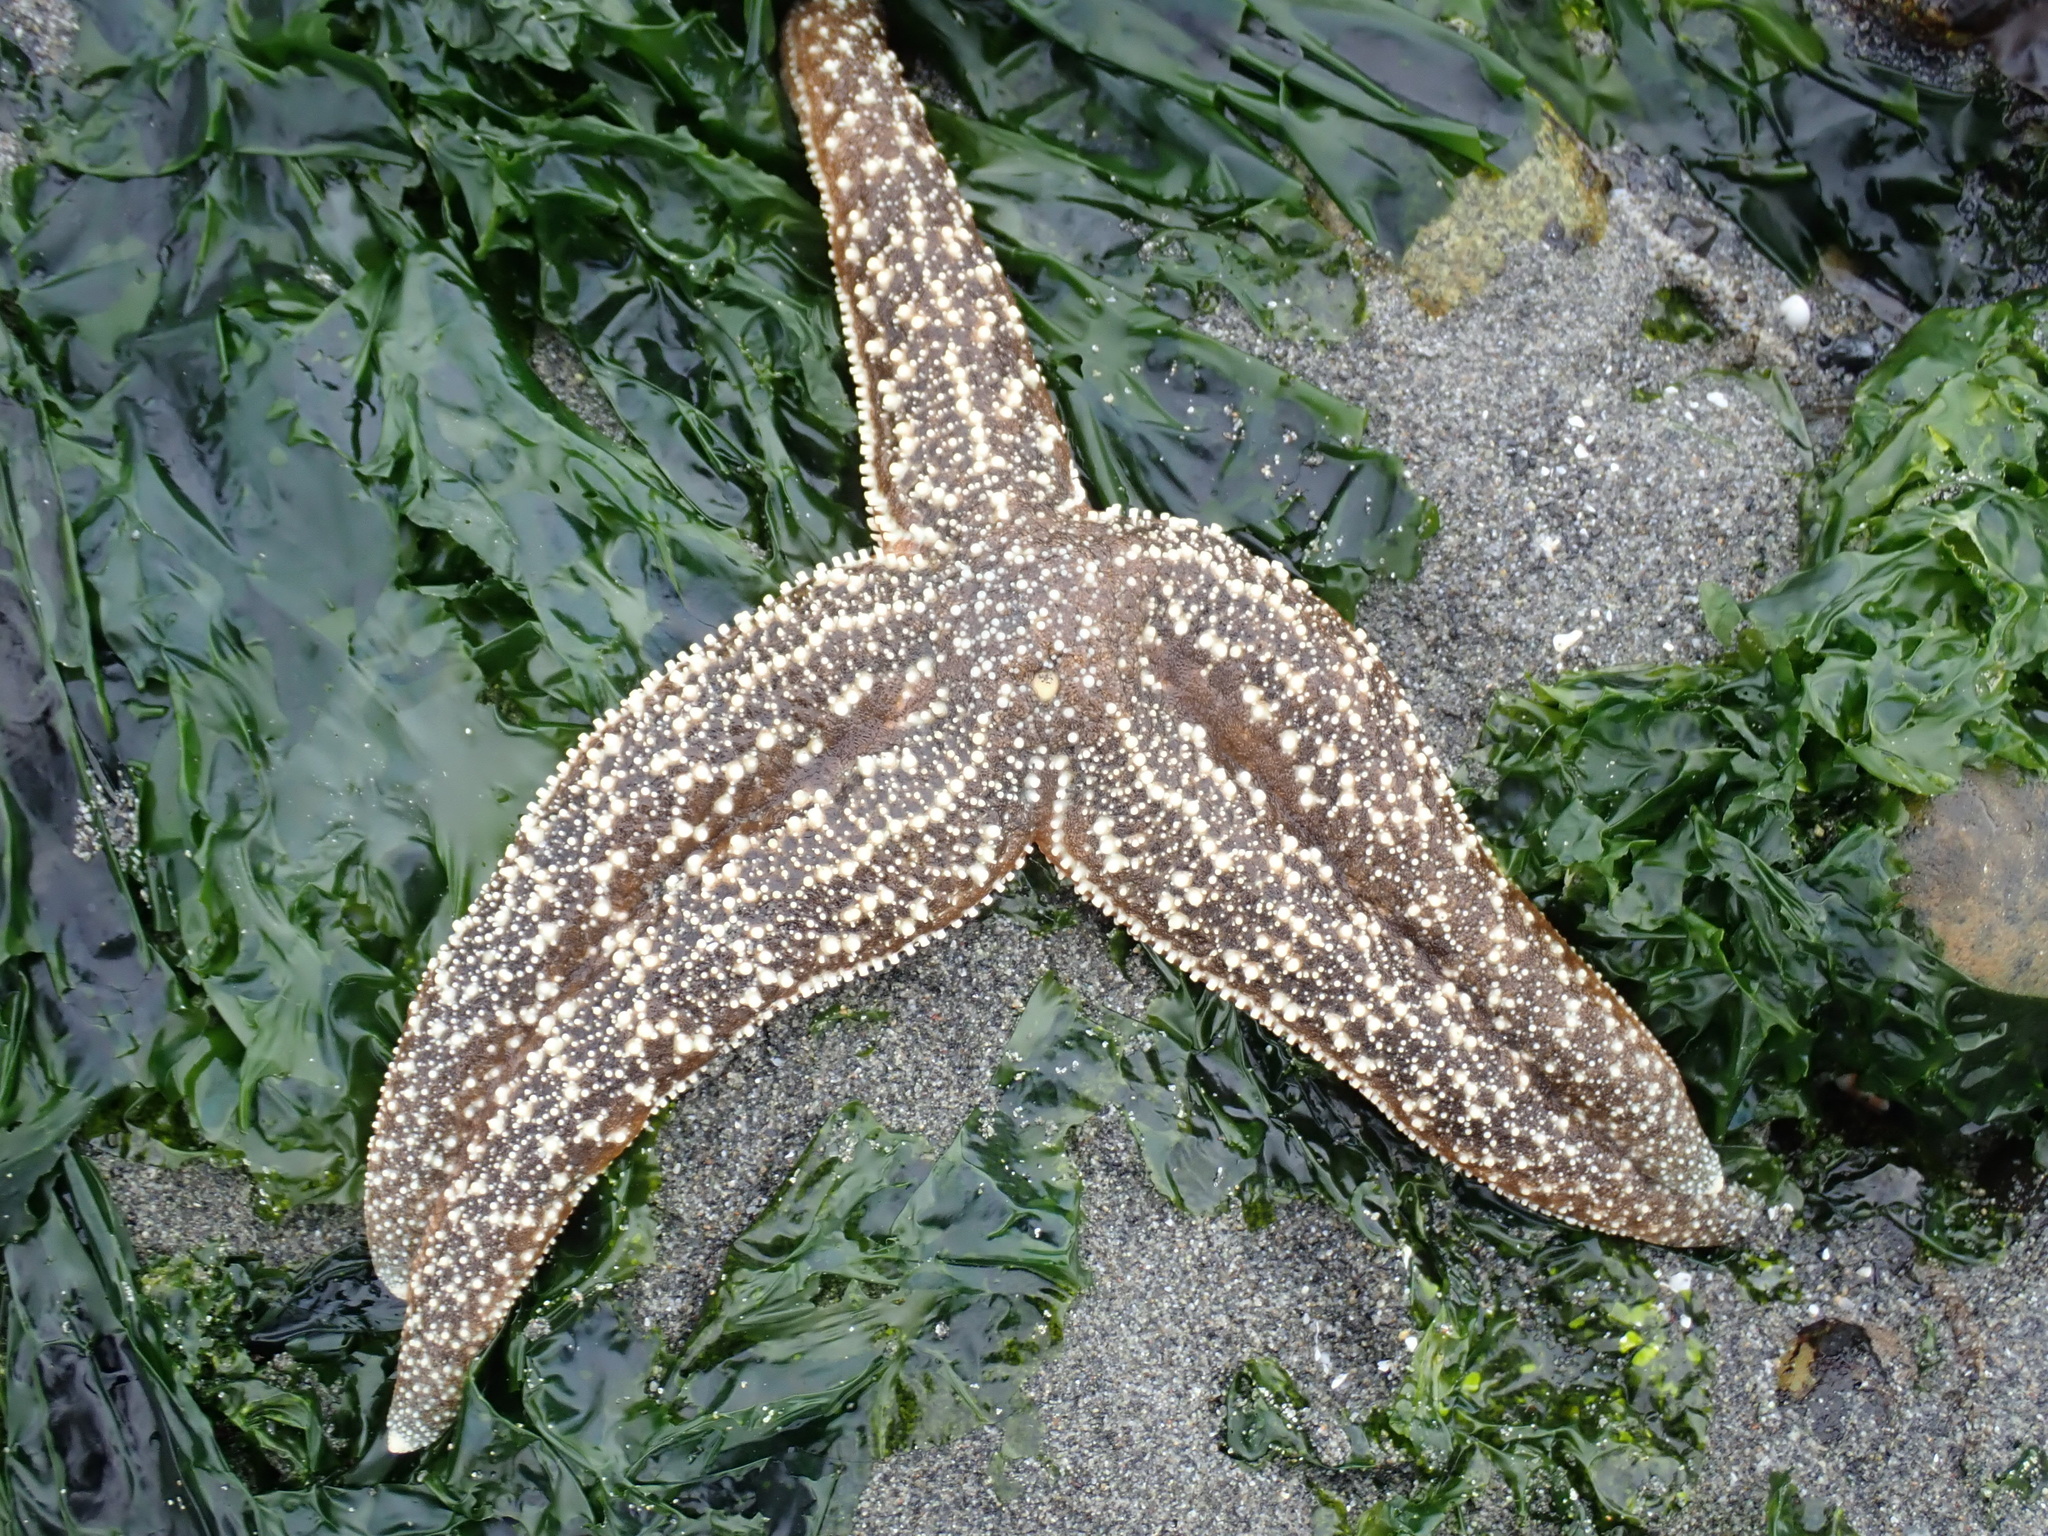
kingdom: Animalia
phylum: Echinodermata
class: Asteroidea
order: Forcipulatida
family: Asteriidae
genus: Evasterias
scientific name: Evasterias troschelii
